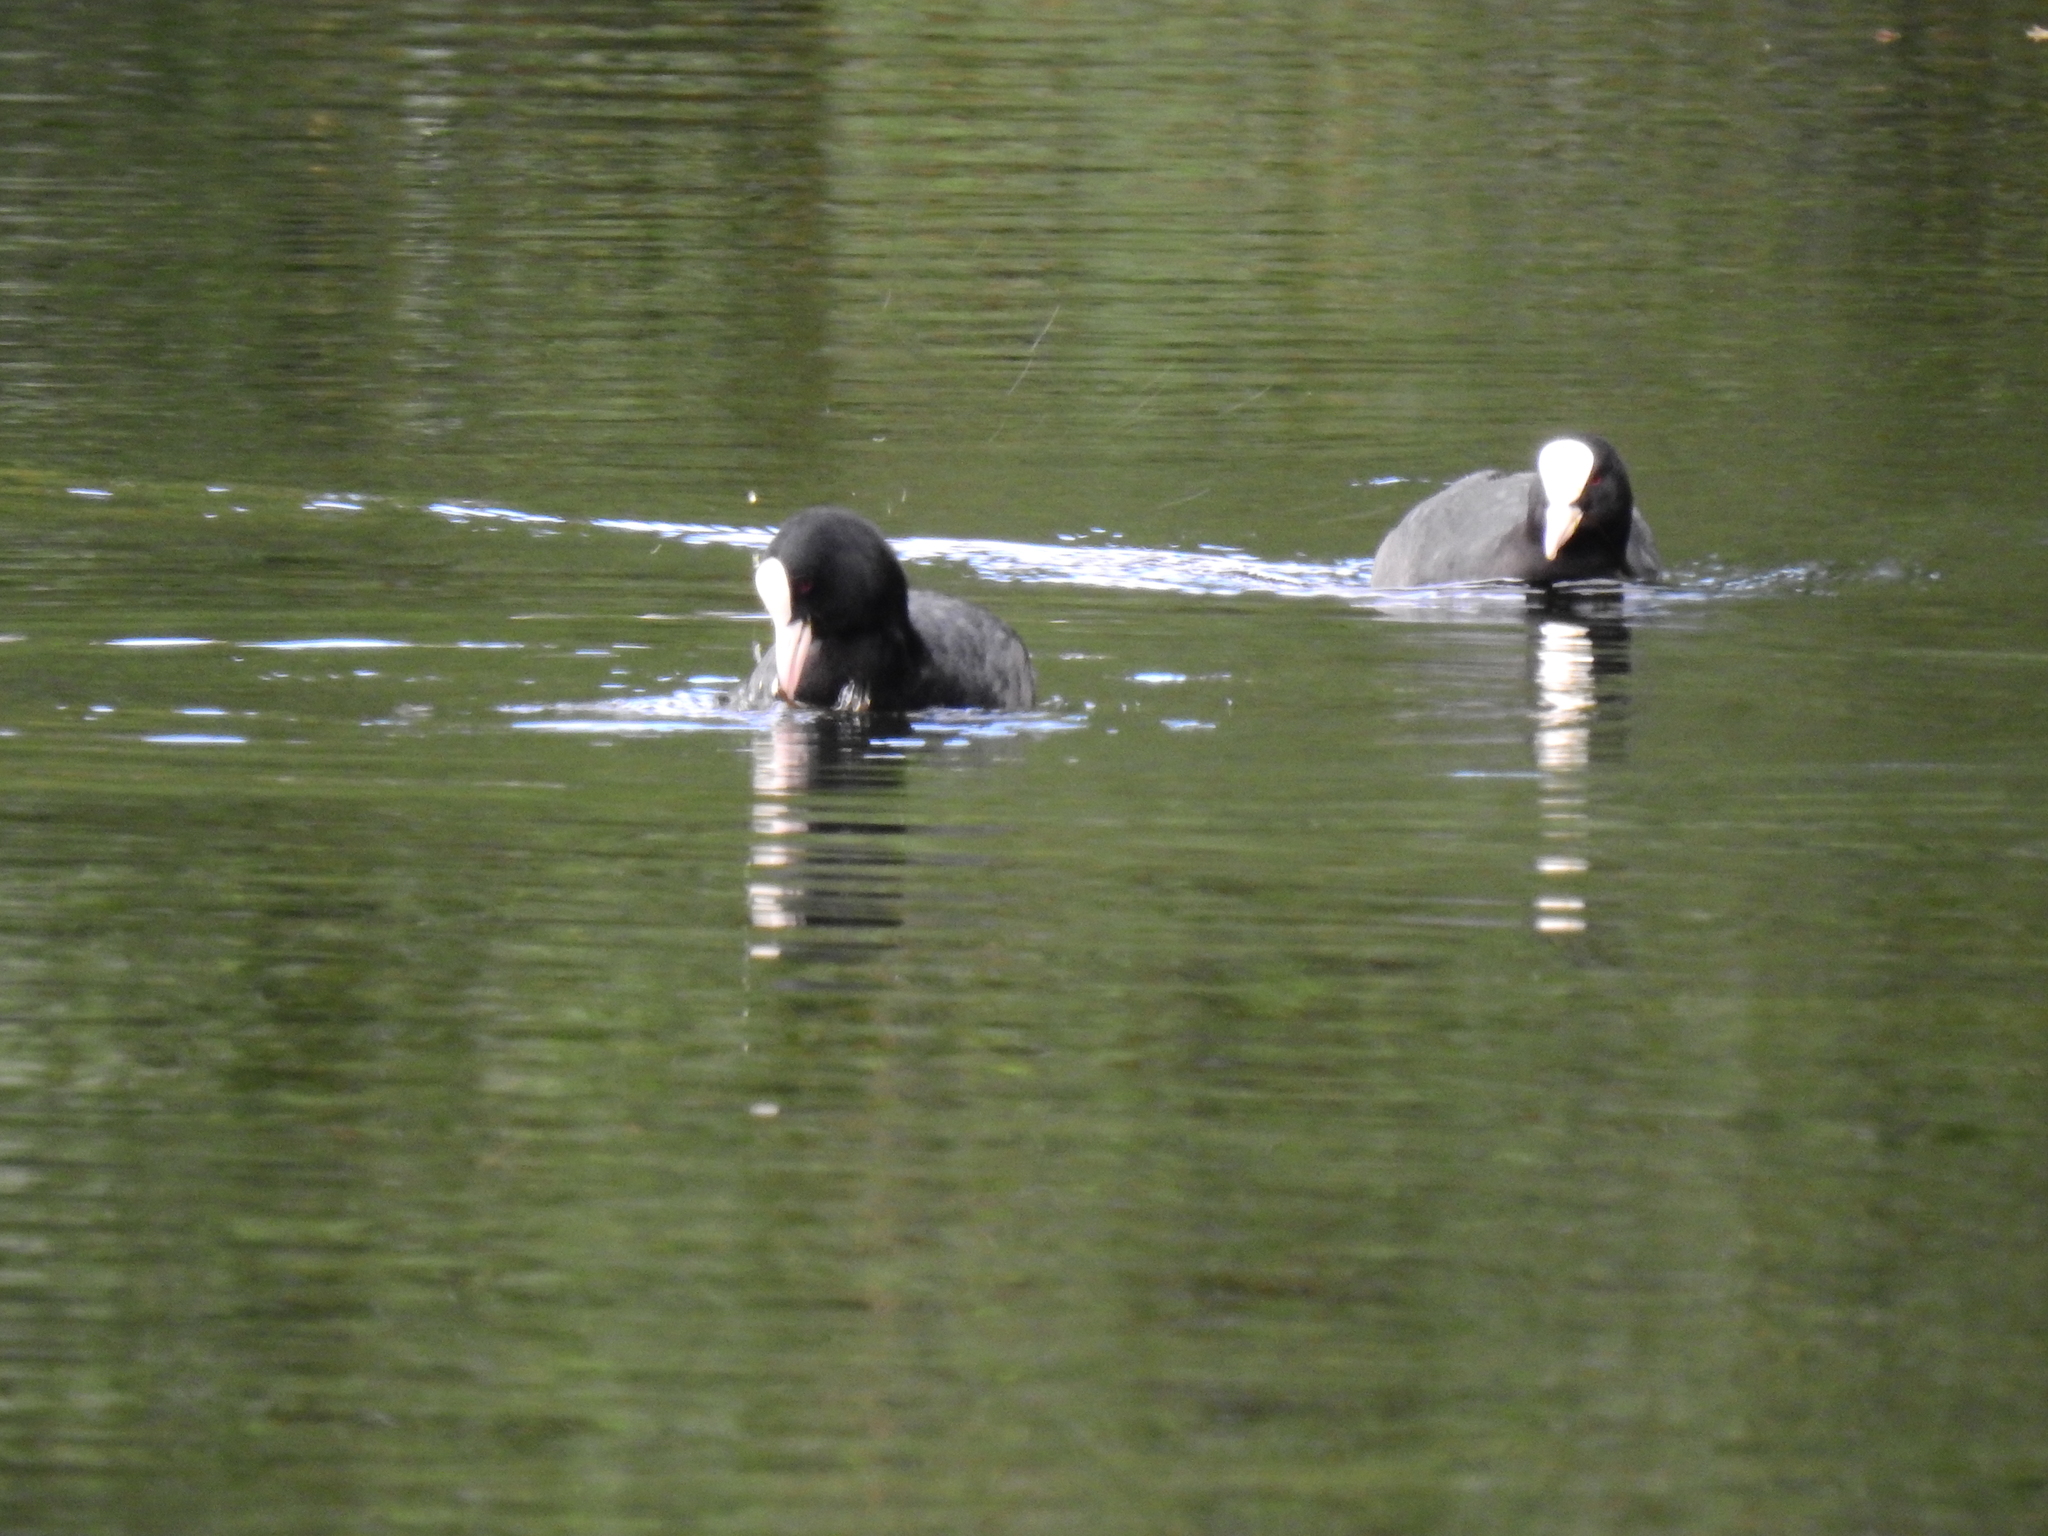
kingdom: Animalia
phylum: Chordata
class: Aves
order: Gruiformes
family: Rallidae
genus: Fulica
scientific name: Fulica atra
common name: Eurasian coot
